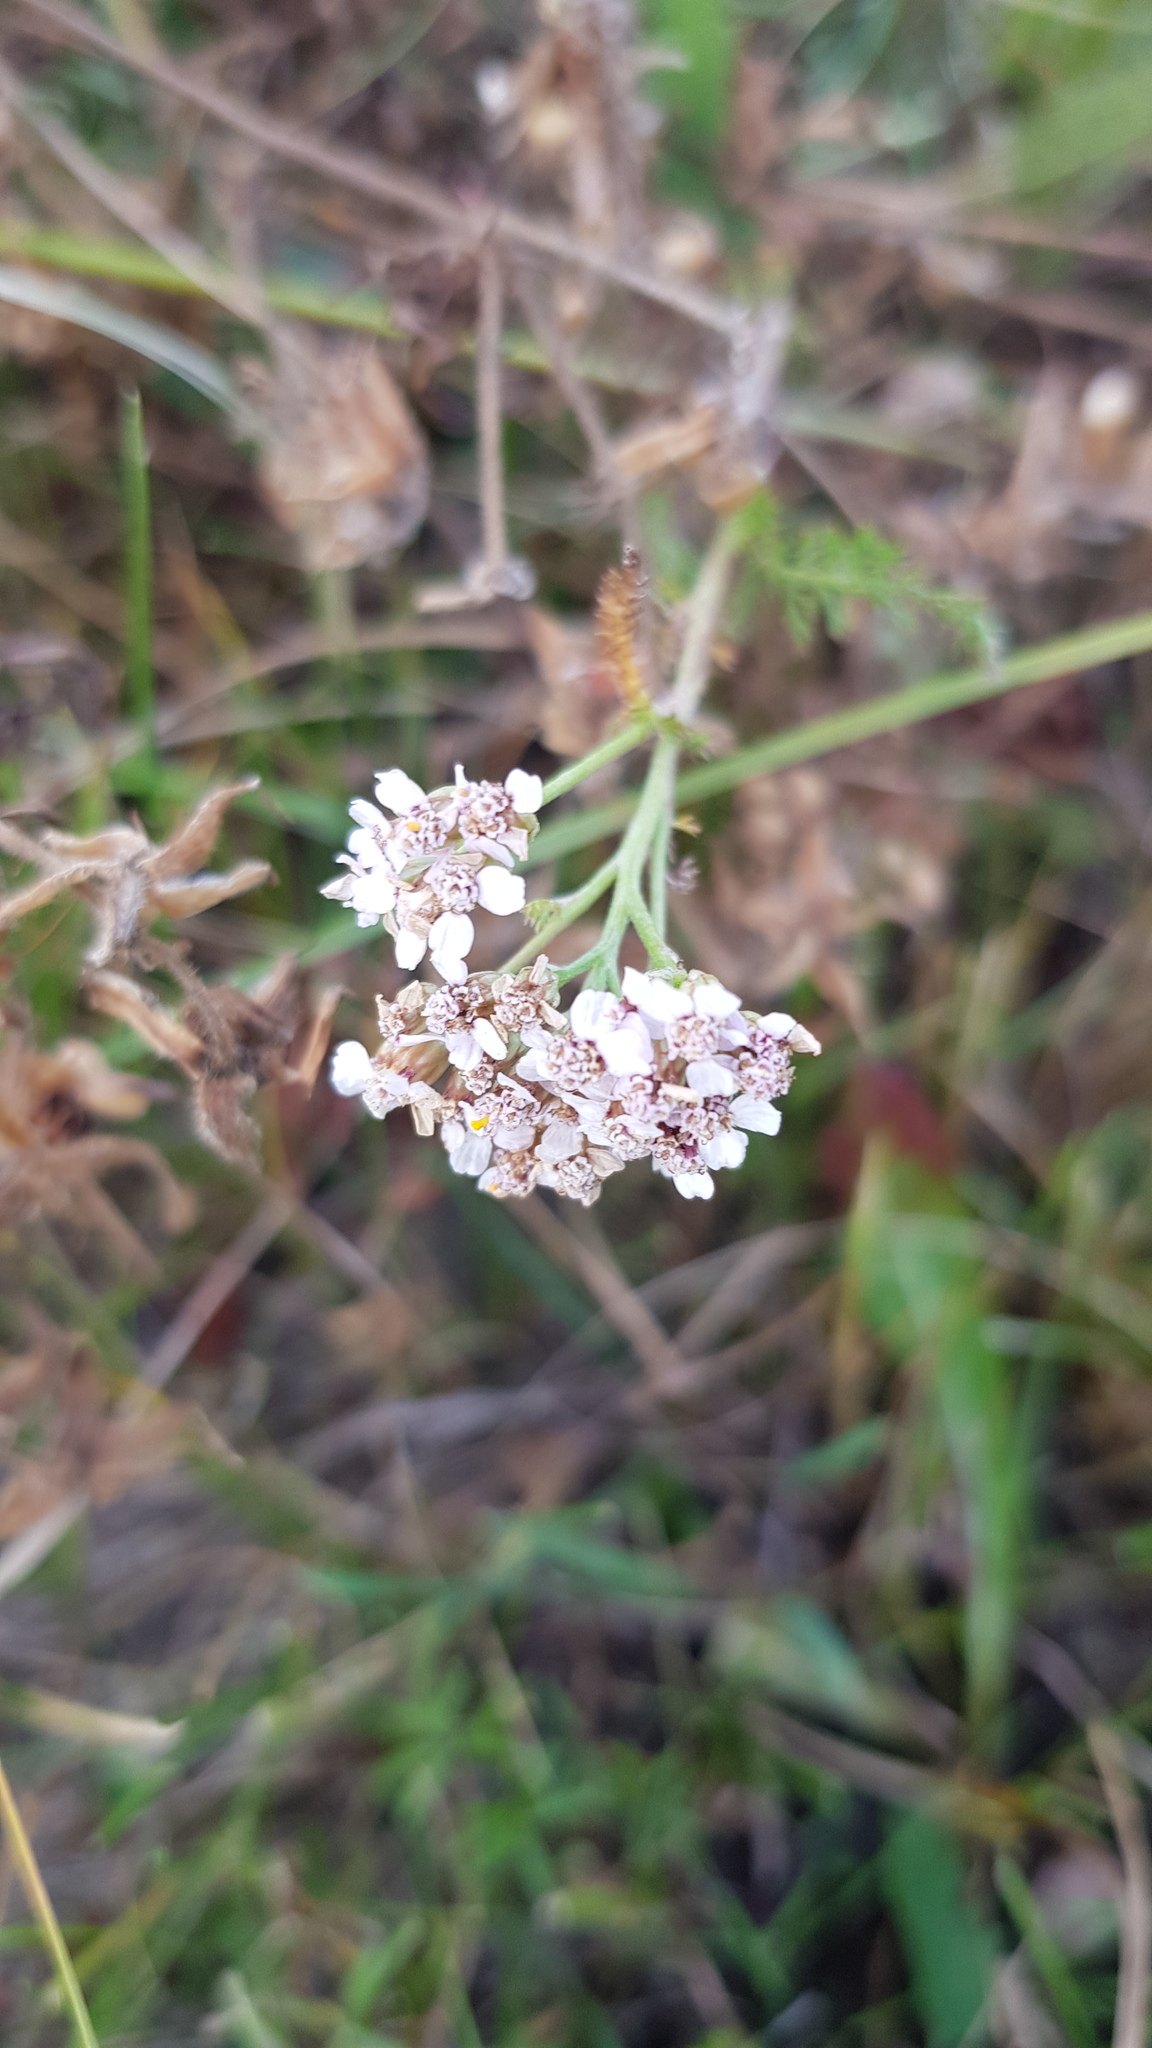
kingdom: Plantae
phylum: Tracheophyta
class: Magnoliopsida
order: Asterales
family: Asteraceae
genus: Achillea
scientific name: Achillea asiatica
